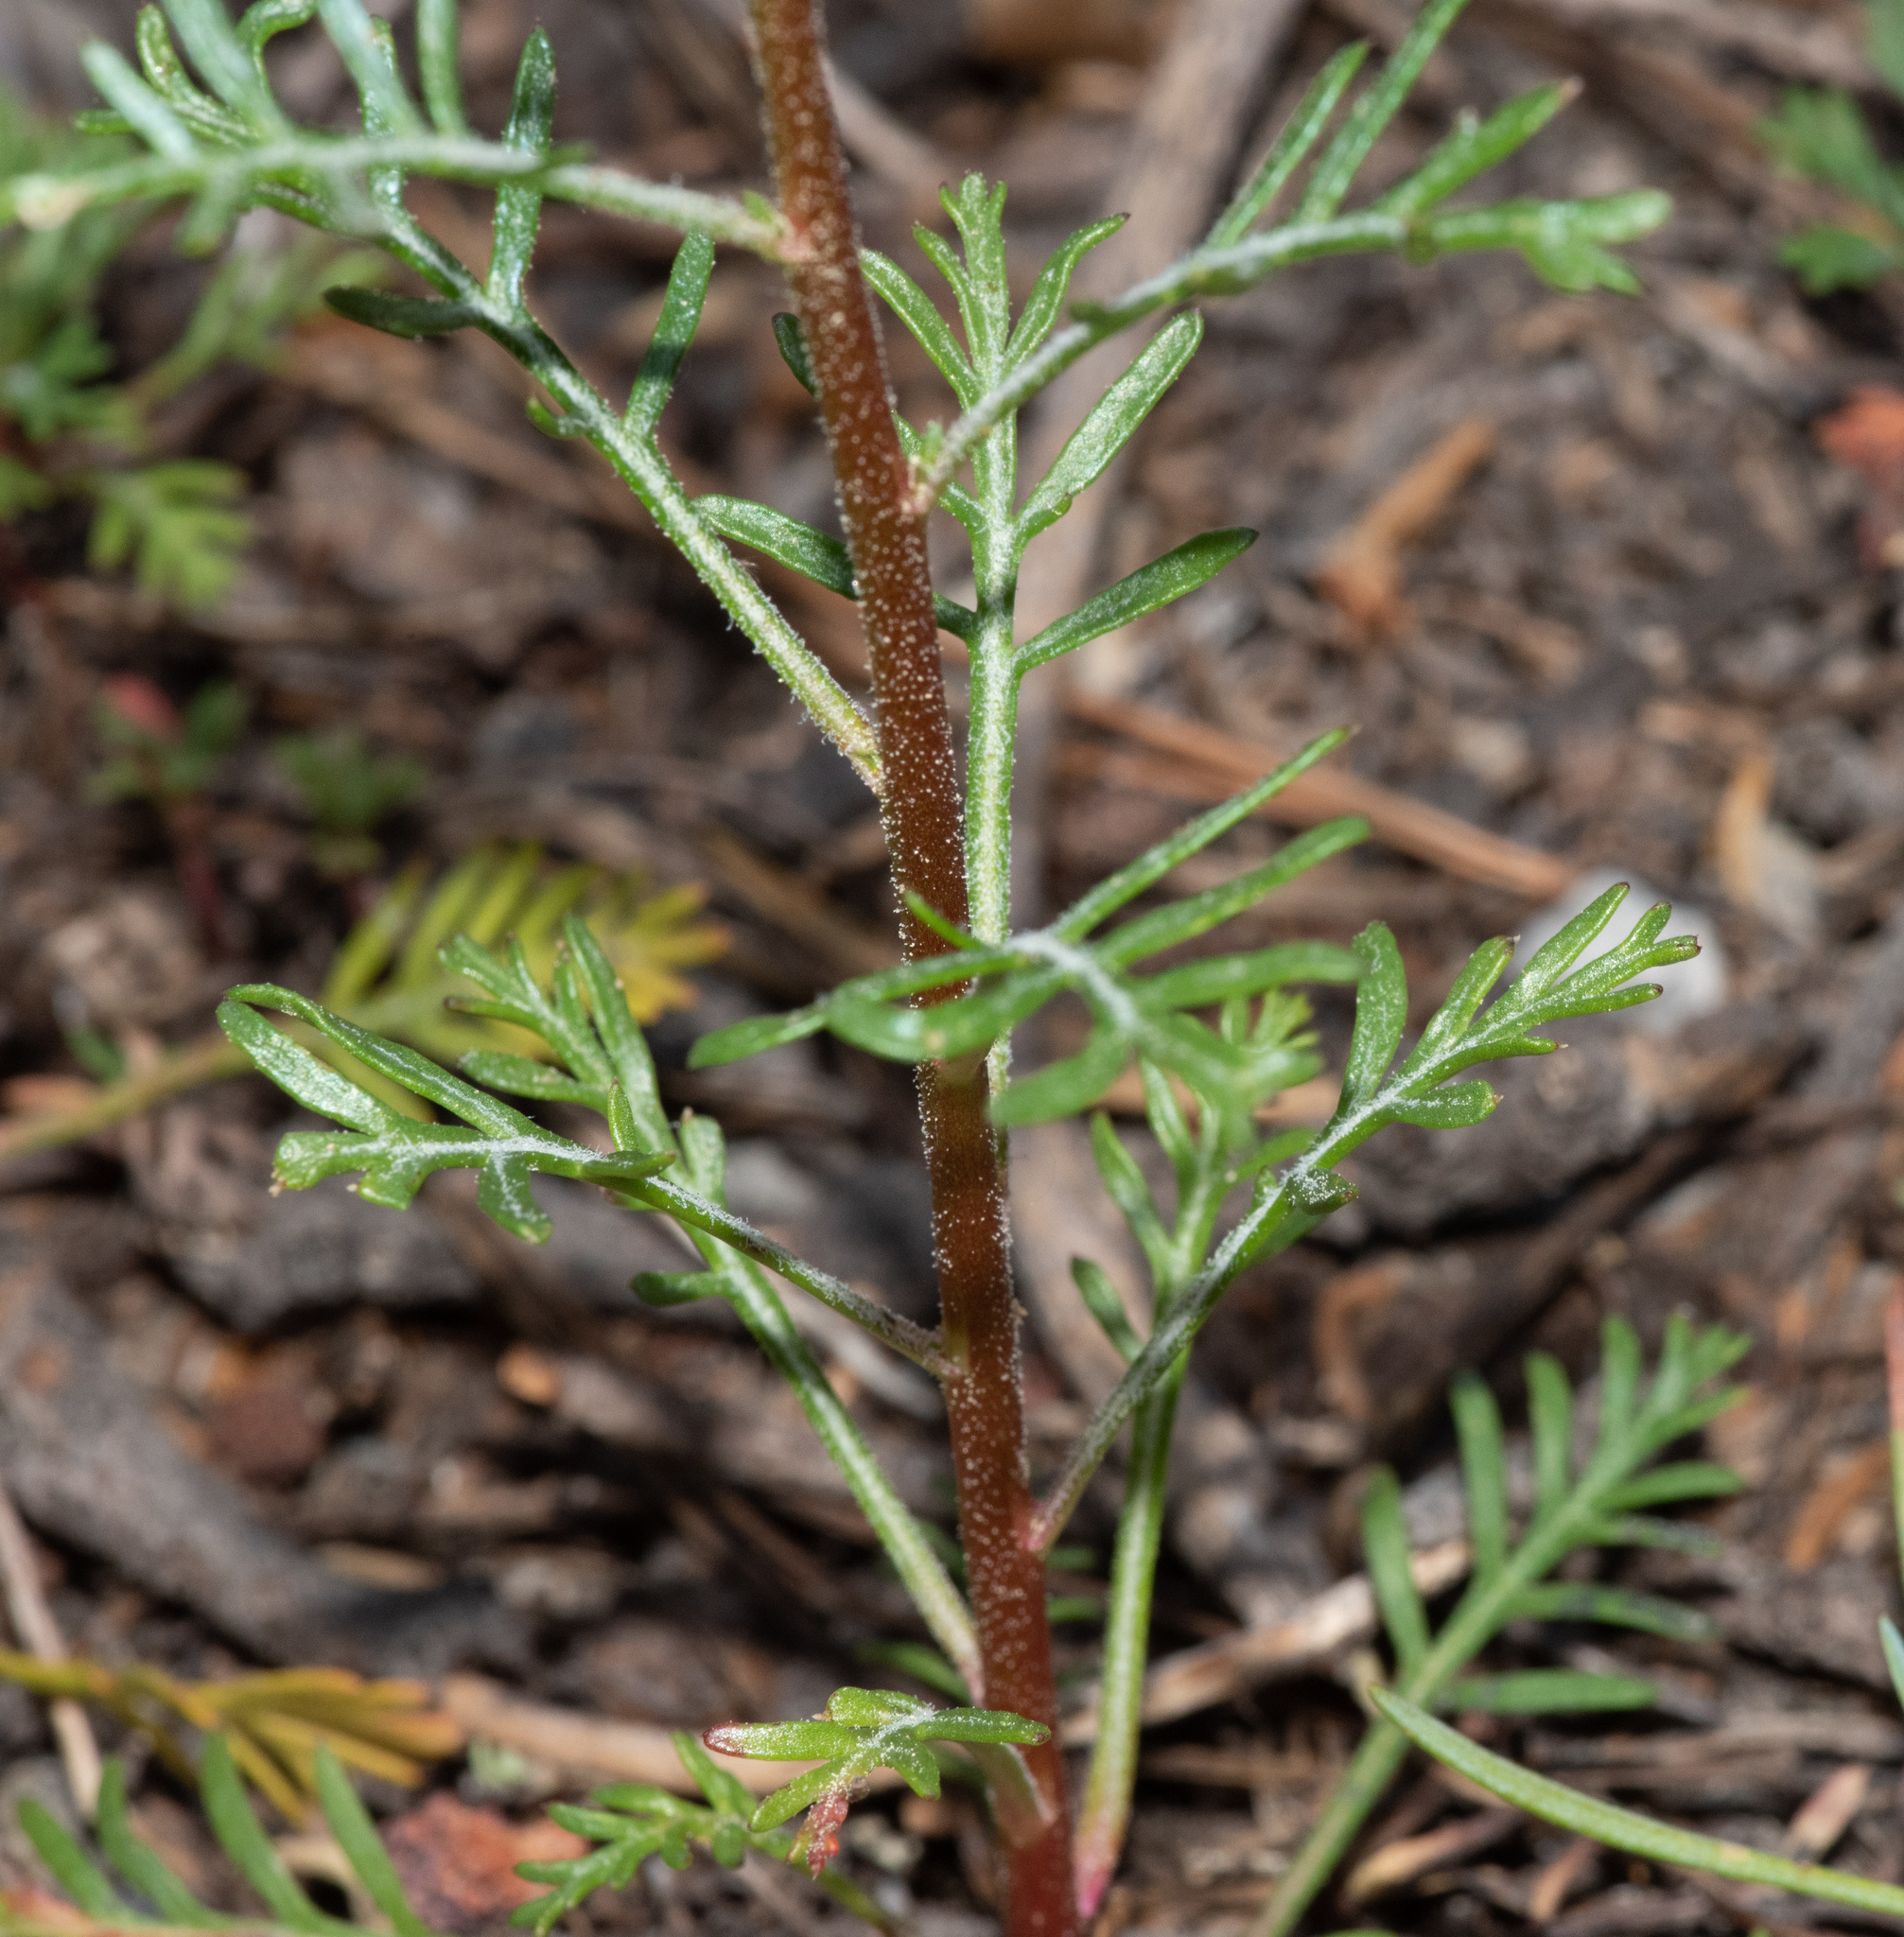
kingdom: Plantae
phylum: Tracheophyta
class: Magnoliopsida
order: Ericales
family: Polemoniaceae
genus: Ipomopsis
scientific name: Ipomopsis aggregata
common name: Scarlet gilia
